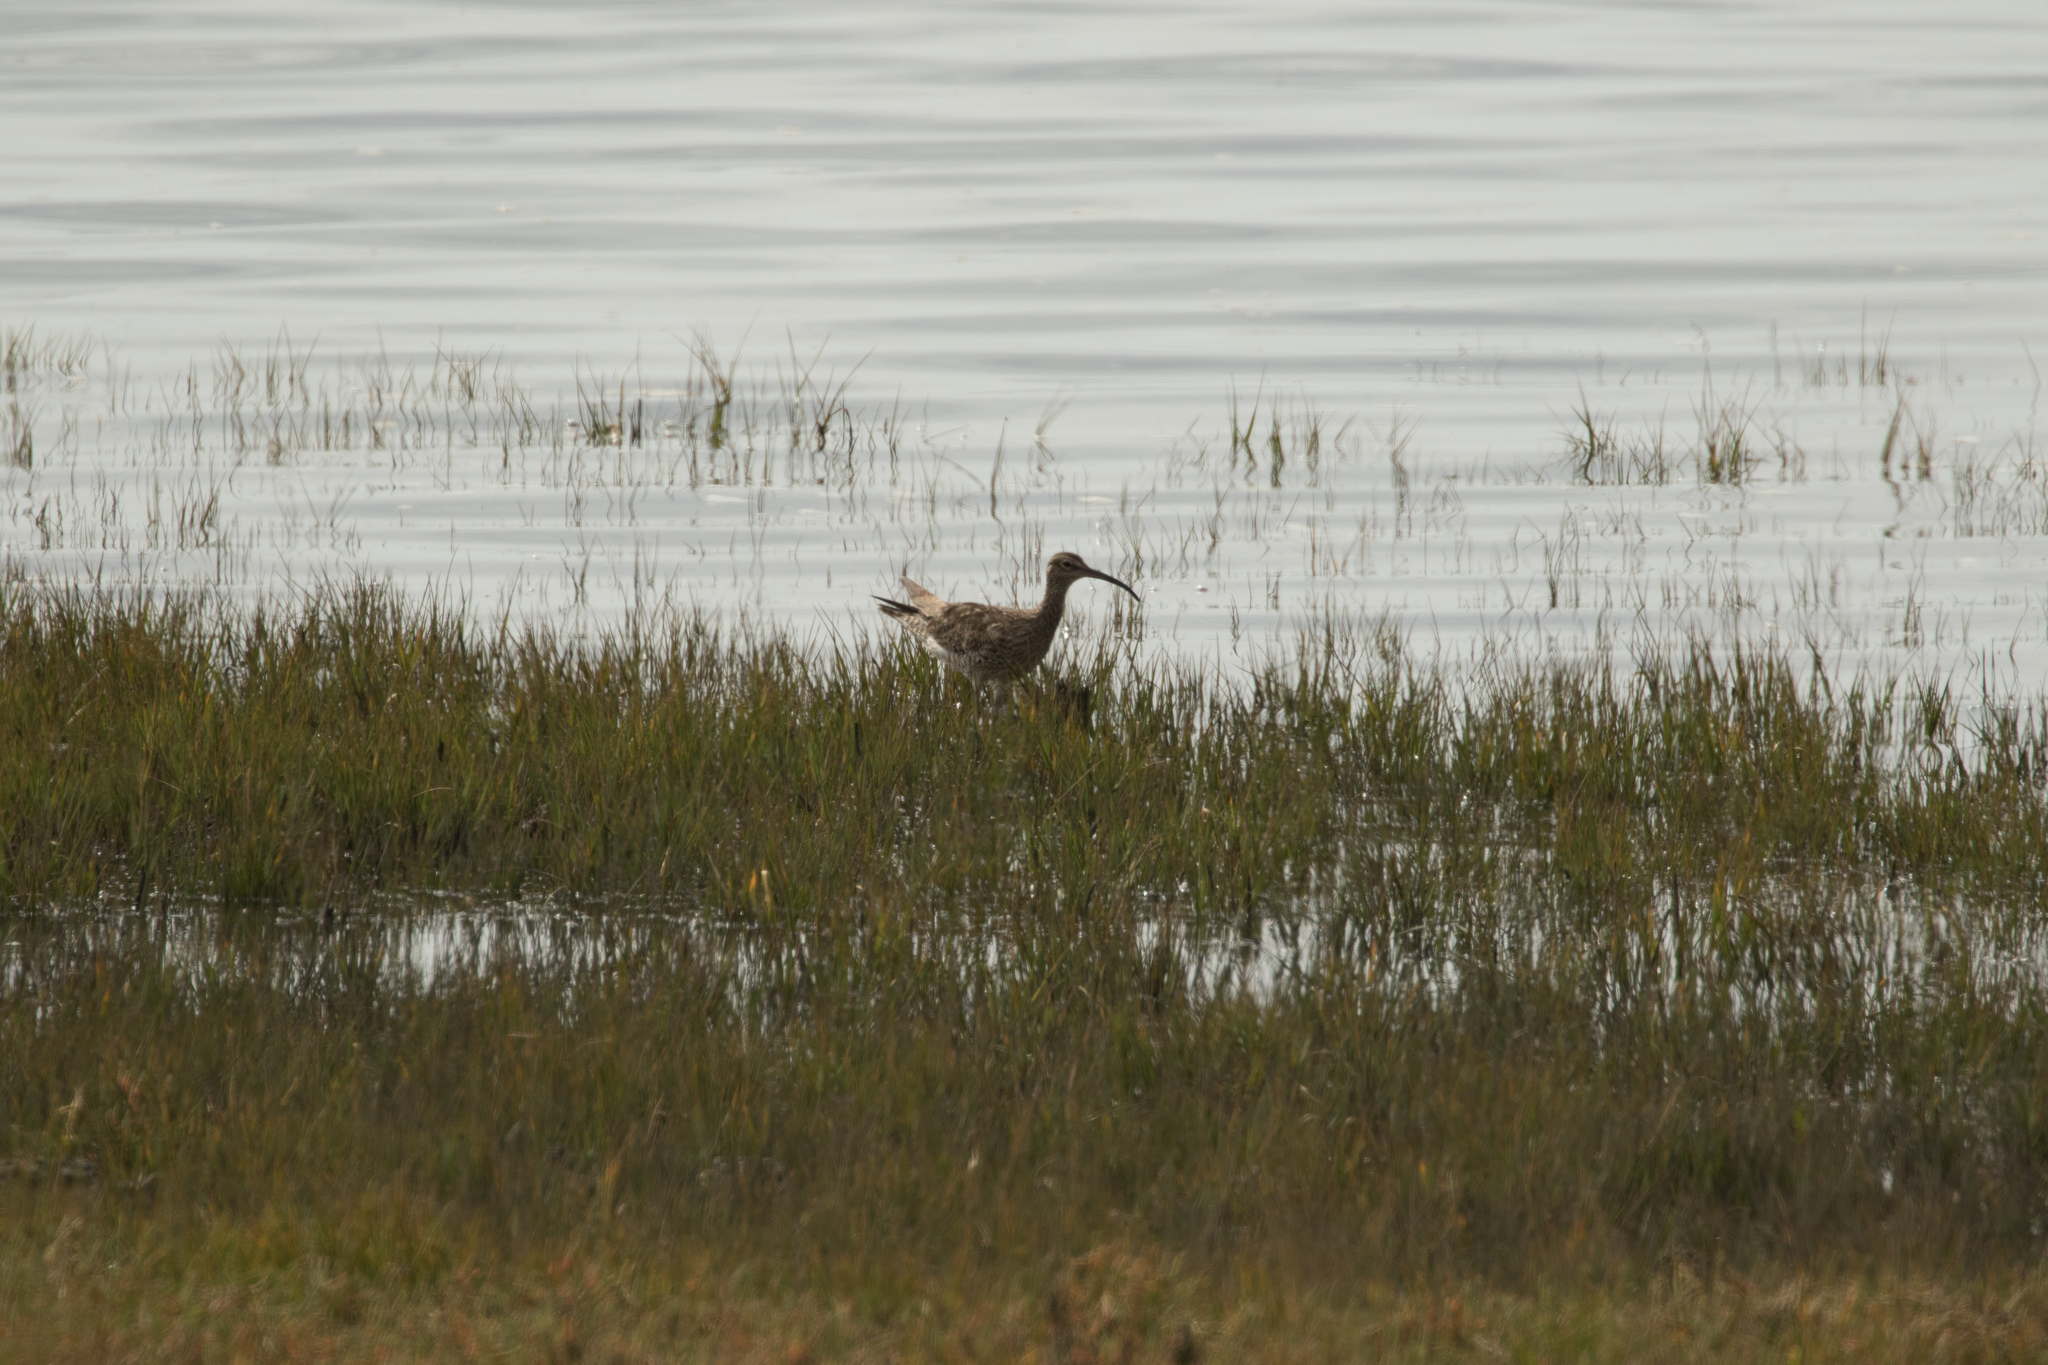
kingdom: Animalia
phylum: Chordata
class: Aves
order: Charadriiformes
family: Scolopacidae
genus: Numenius
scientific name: Numenius phaeopus
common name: Whimbrel
